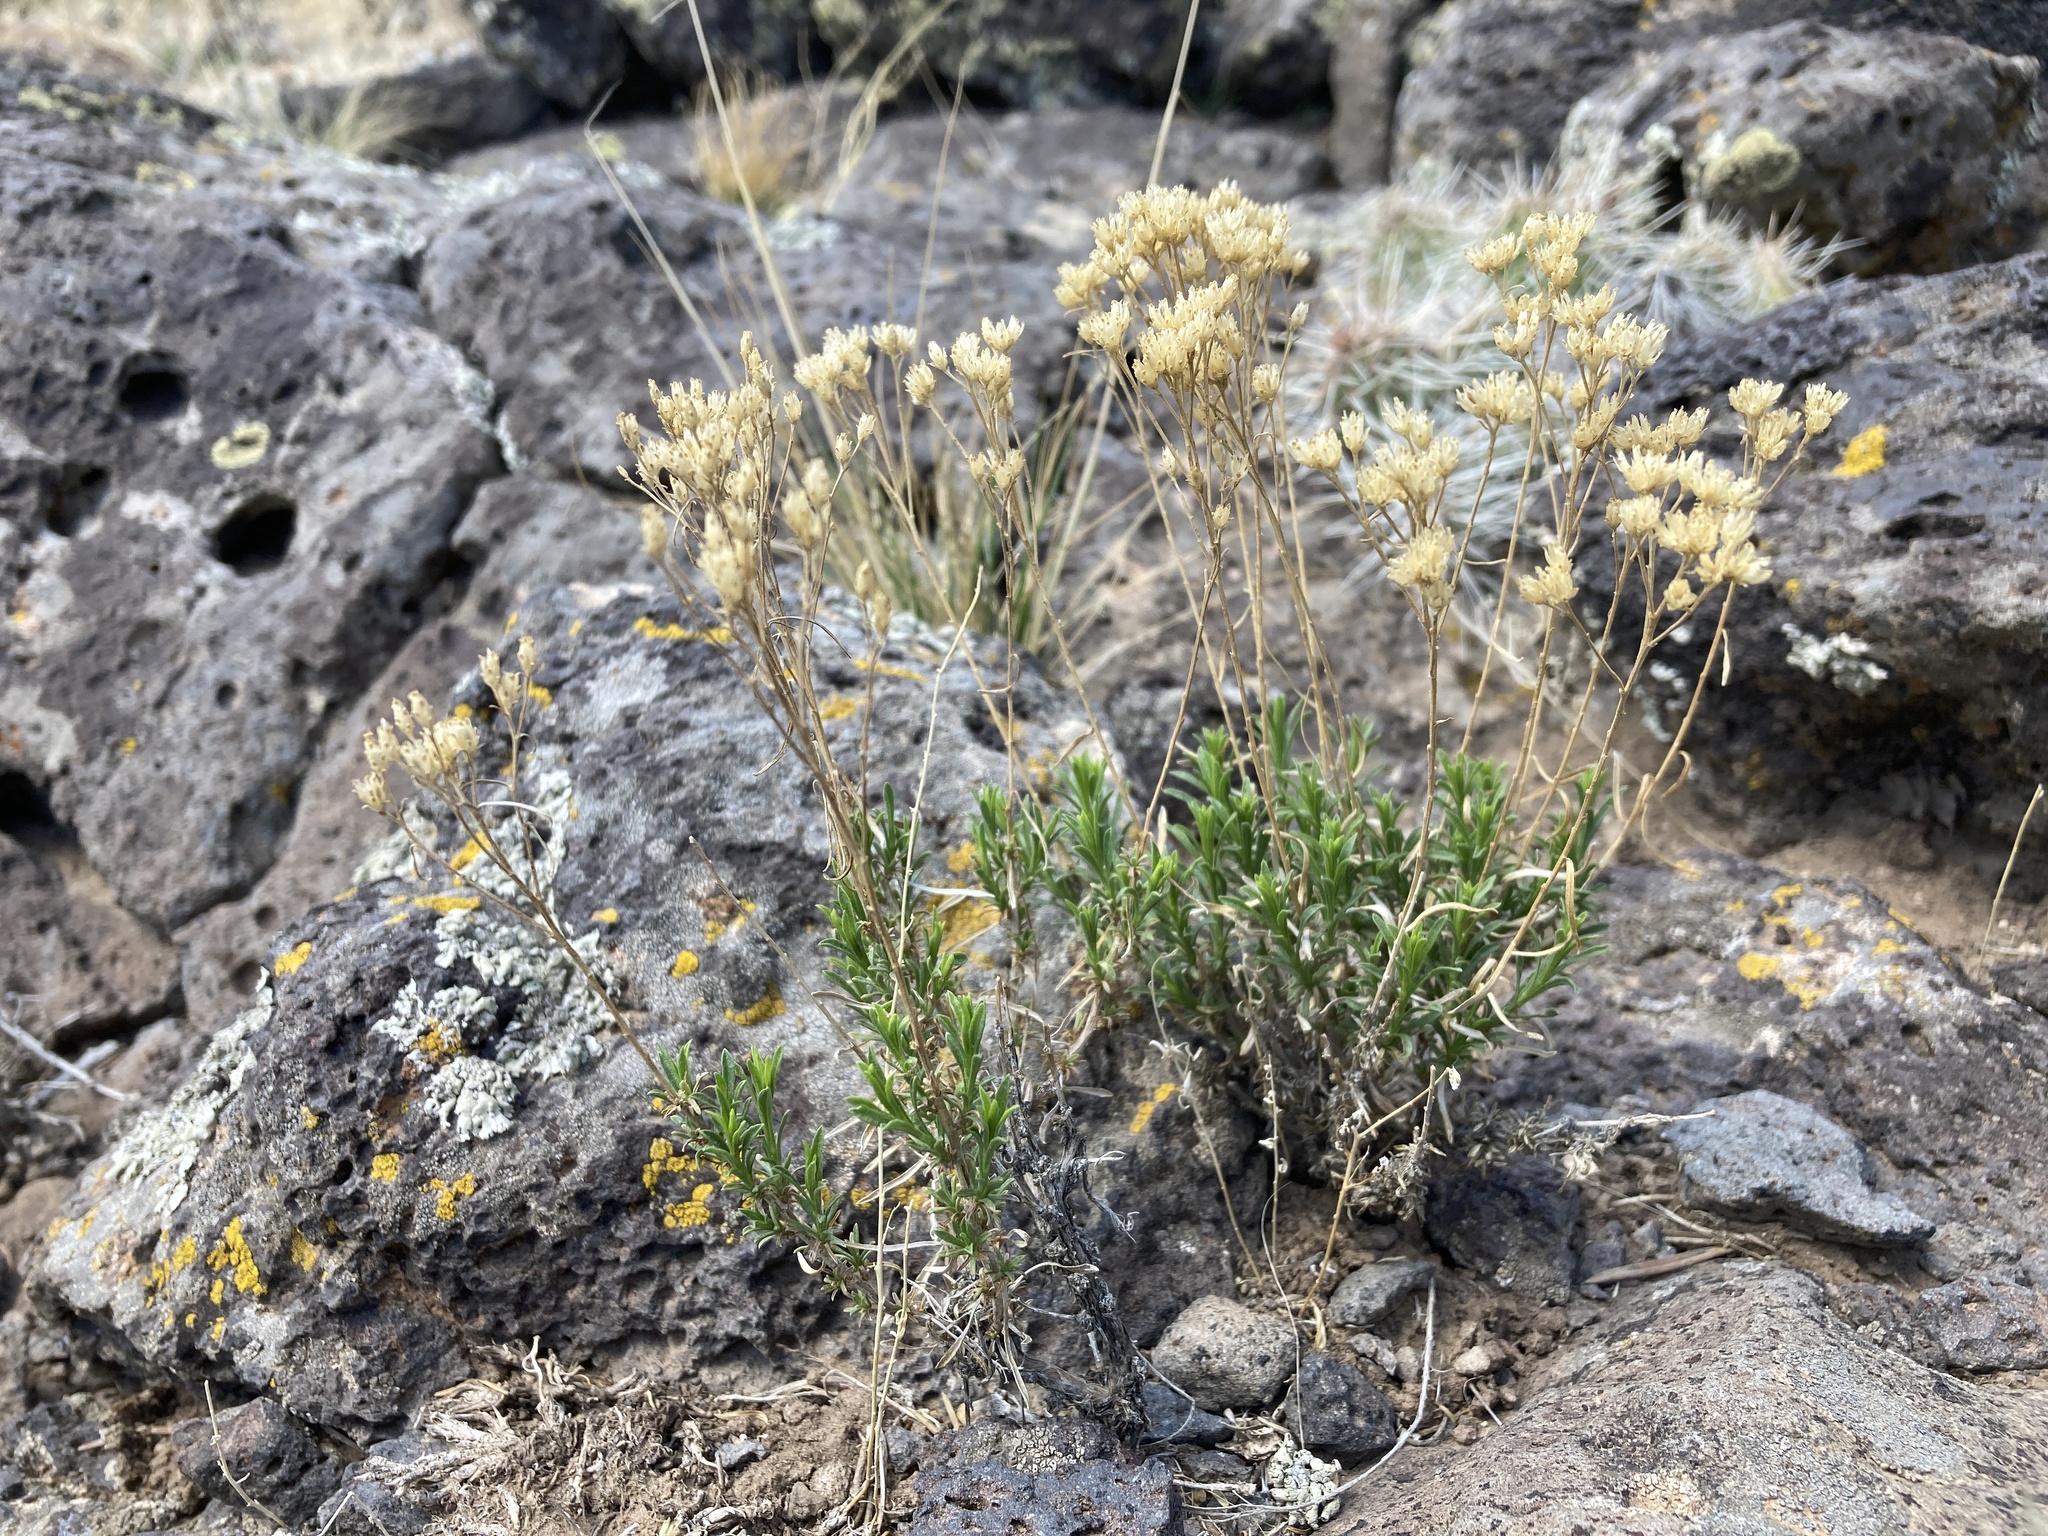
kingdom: Plantae
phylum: Tracheophyta
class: Magnoliopsida
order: Asterales
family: Asteraceae
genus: Gutierrezia
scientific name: Gutierrezia sarothrae
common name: Broom snakeweed
